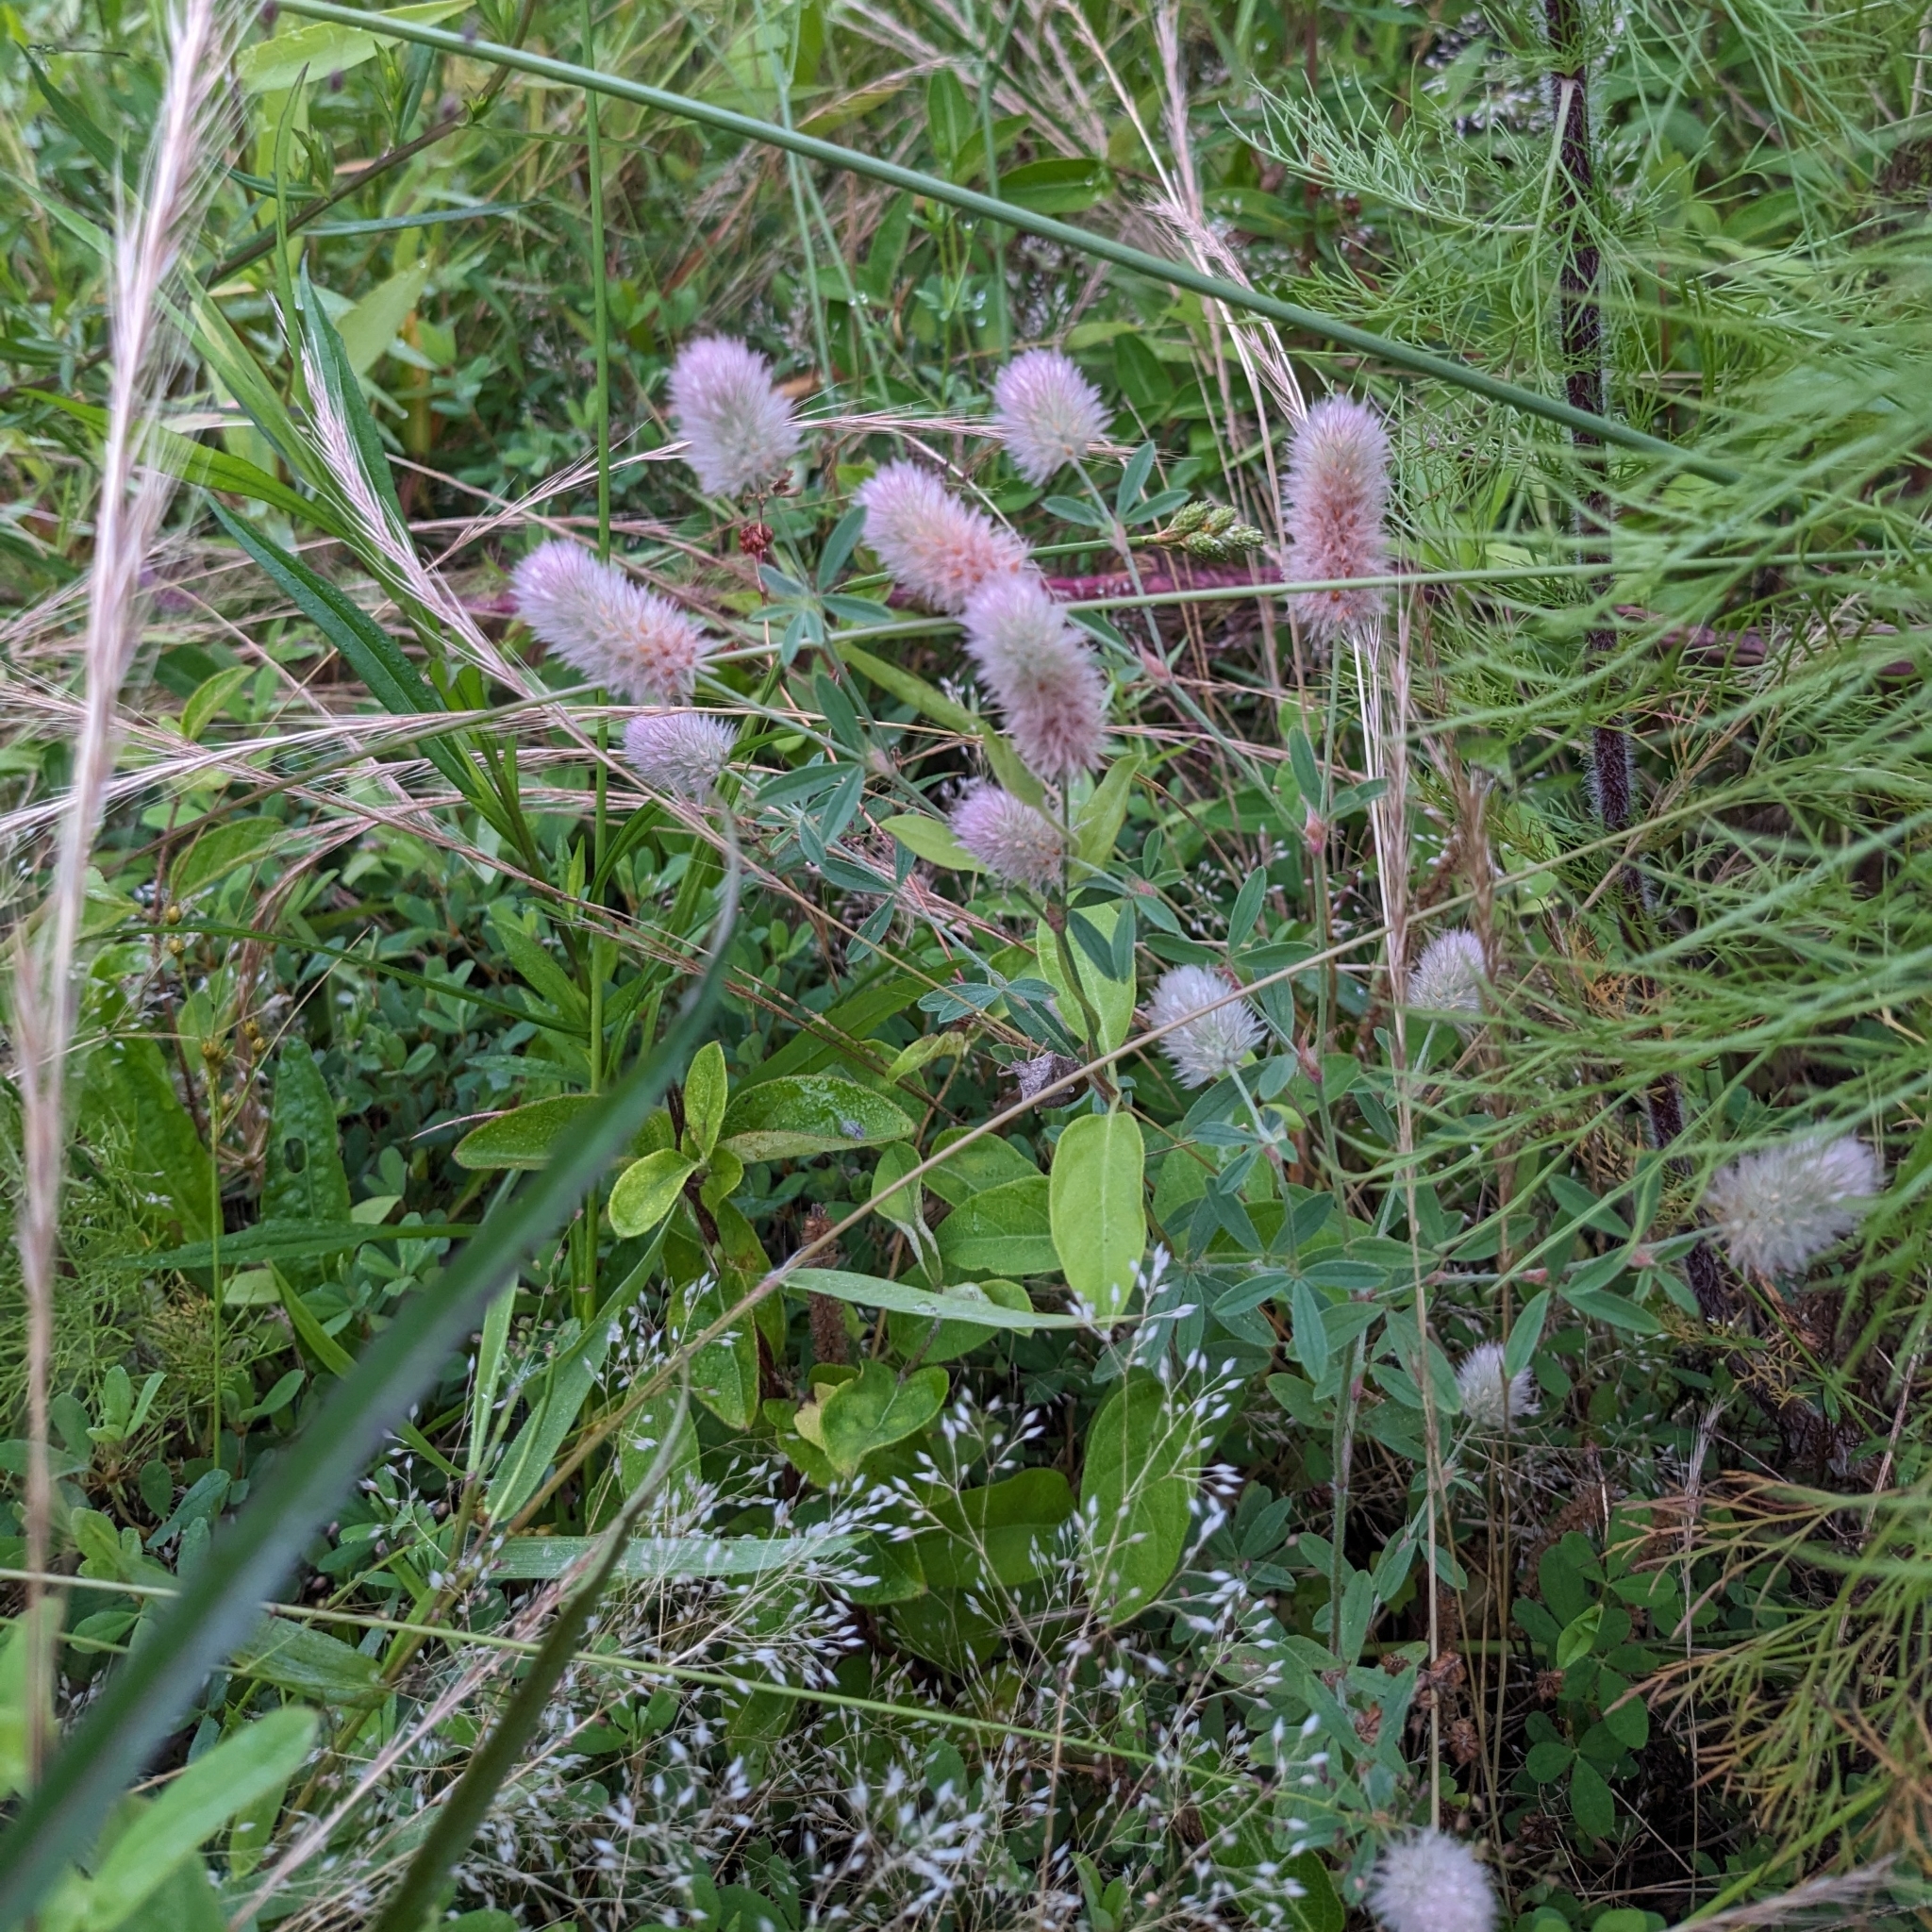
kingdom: Plantae
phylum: Tracheophyta
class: Magnoliopsida
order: Fabales
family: Fabaceae
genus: Trifolium
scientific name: Trifolium arvense
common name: Hare's-foot clover
